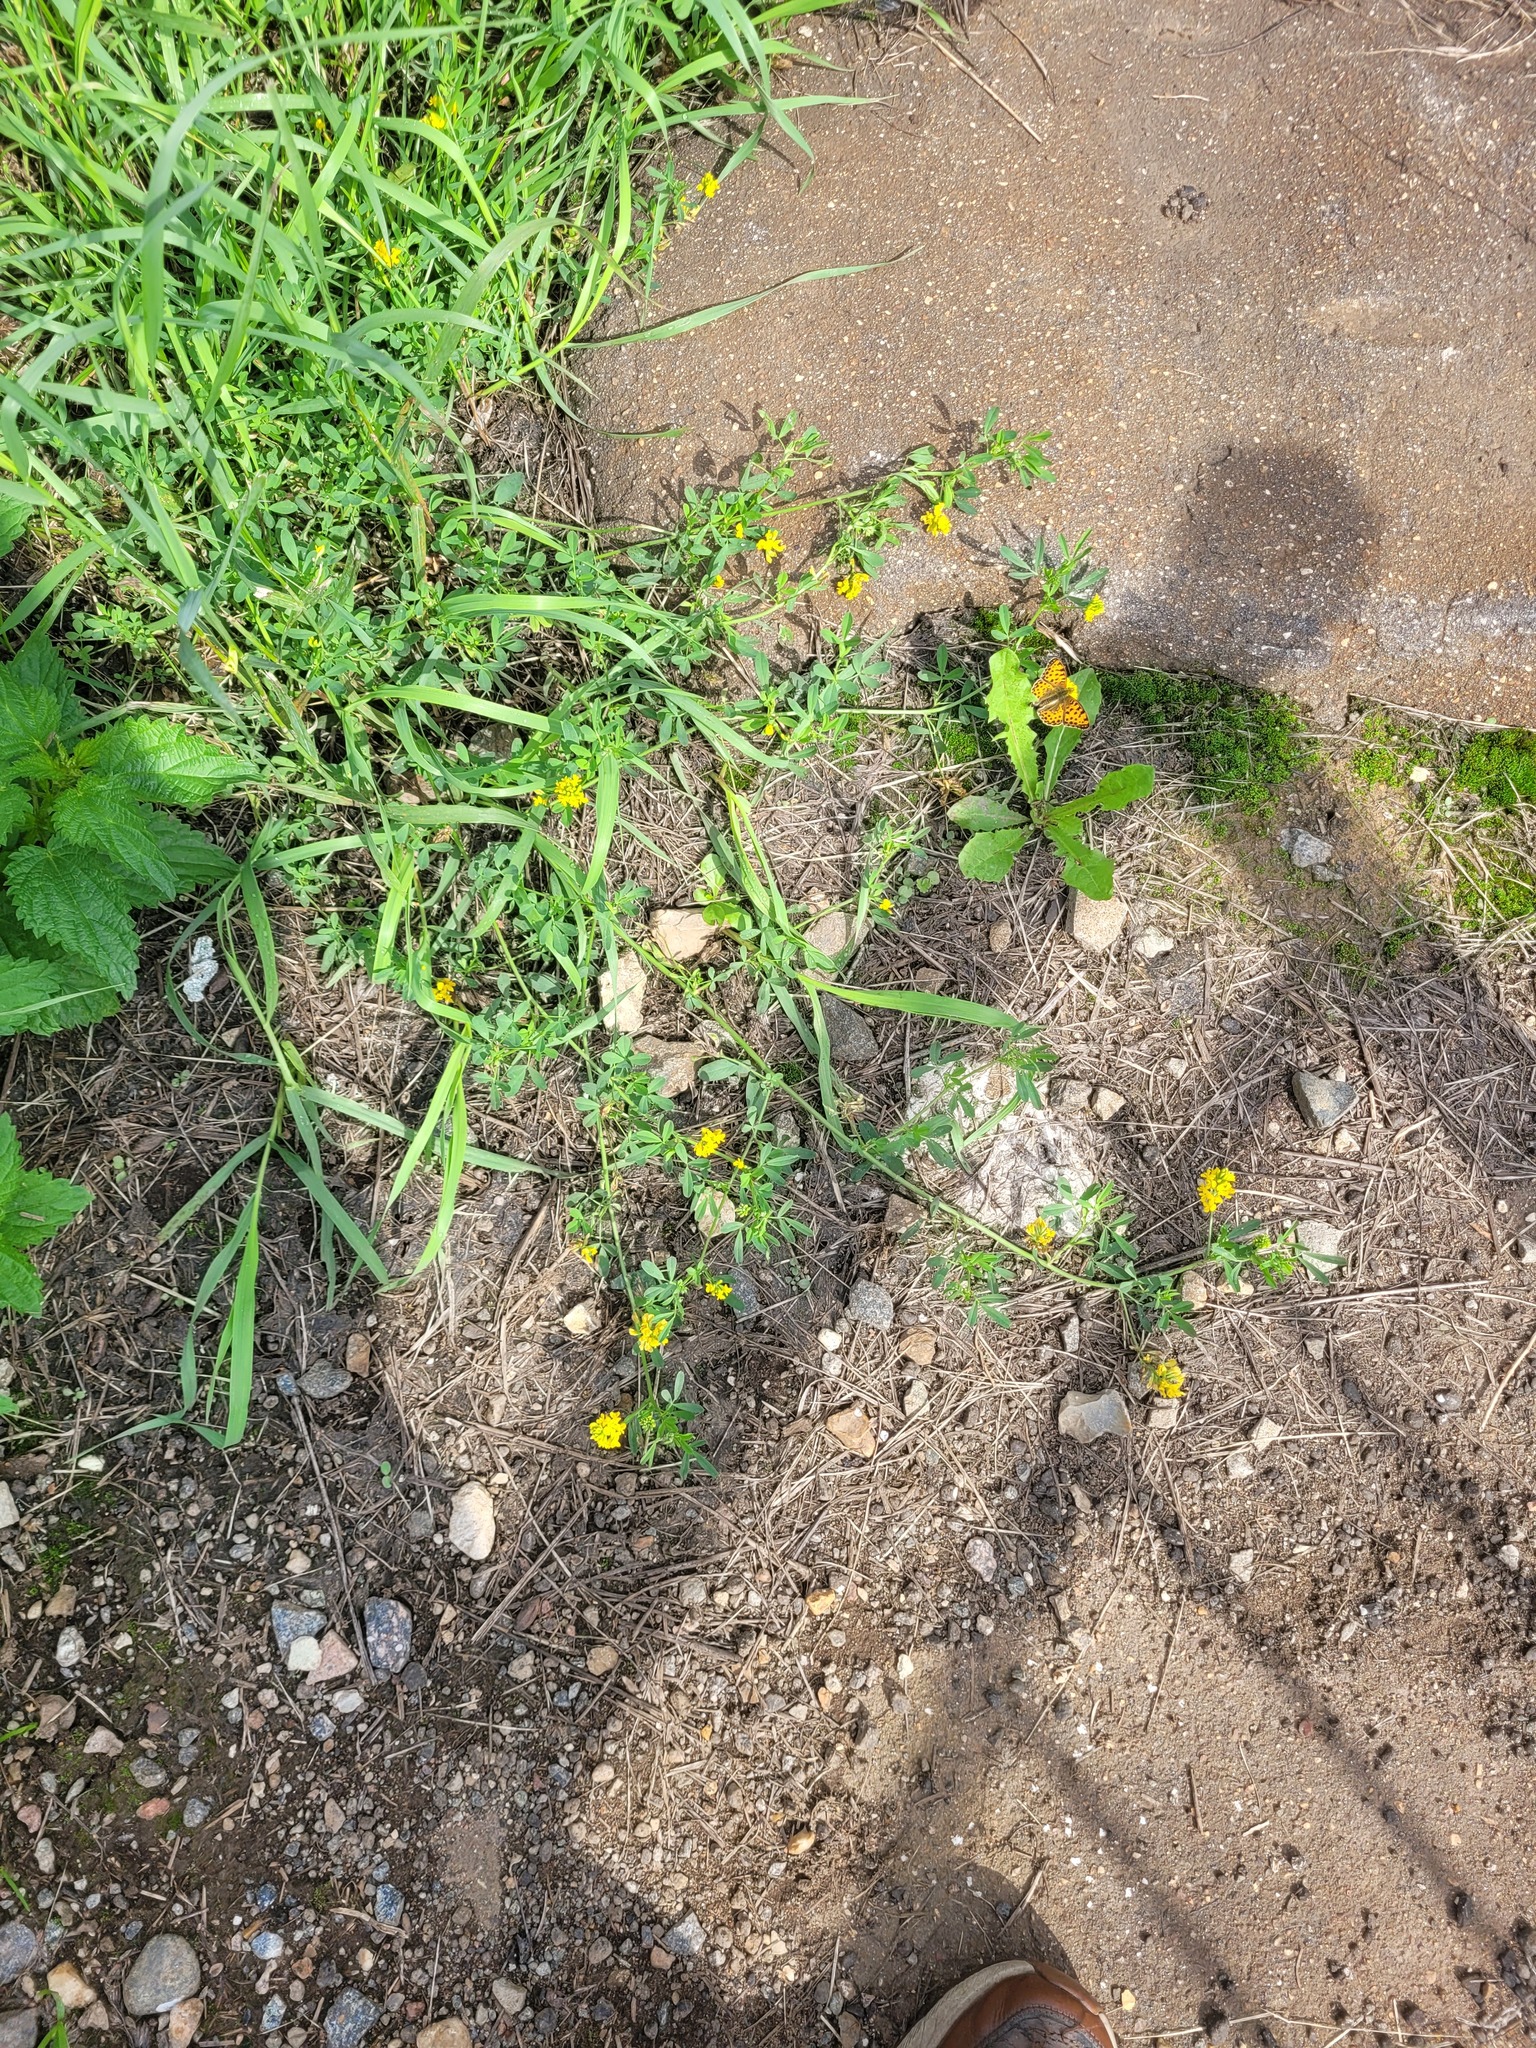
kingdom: Plantae
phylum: Tracheophyta
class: Magnoliopsida
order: Fabales
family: Fabaceae
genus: Medicago
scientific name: Medicago falcata
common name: Sickle medick
